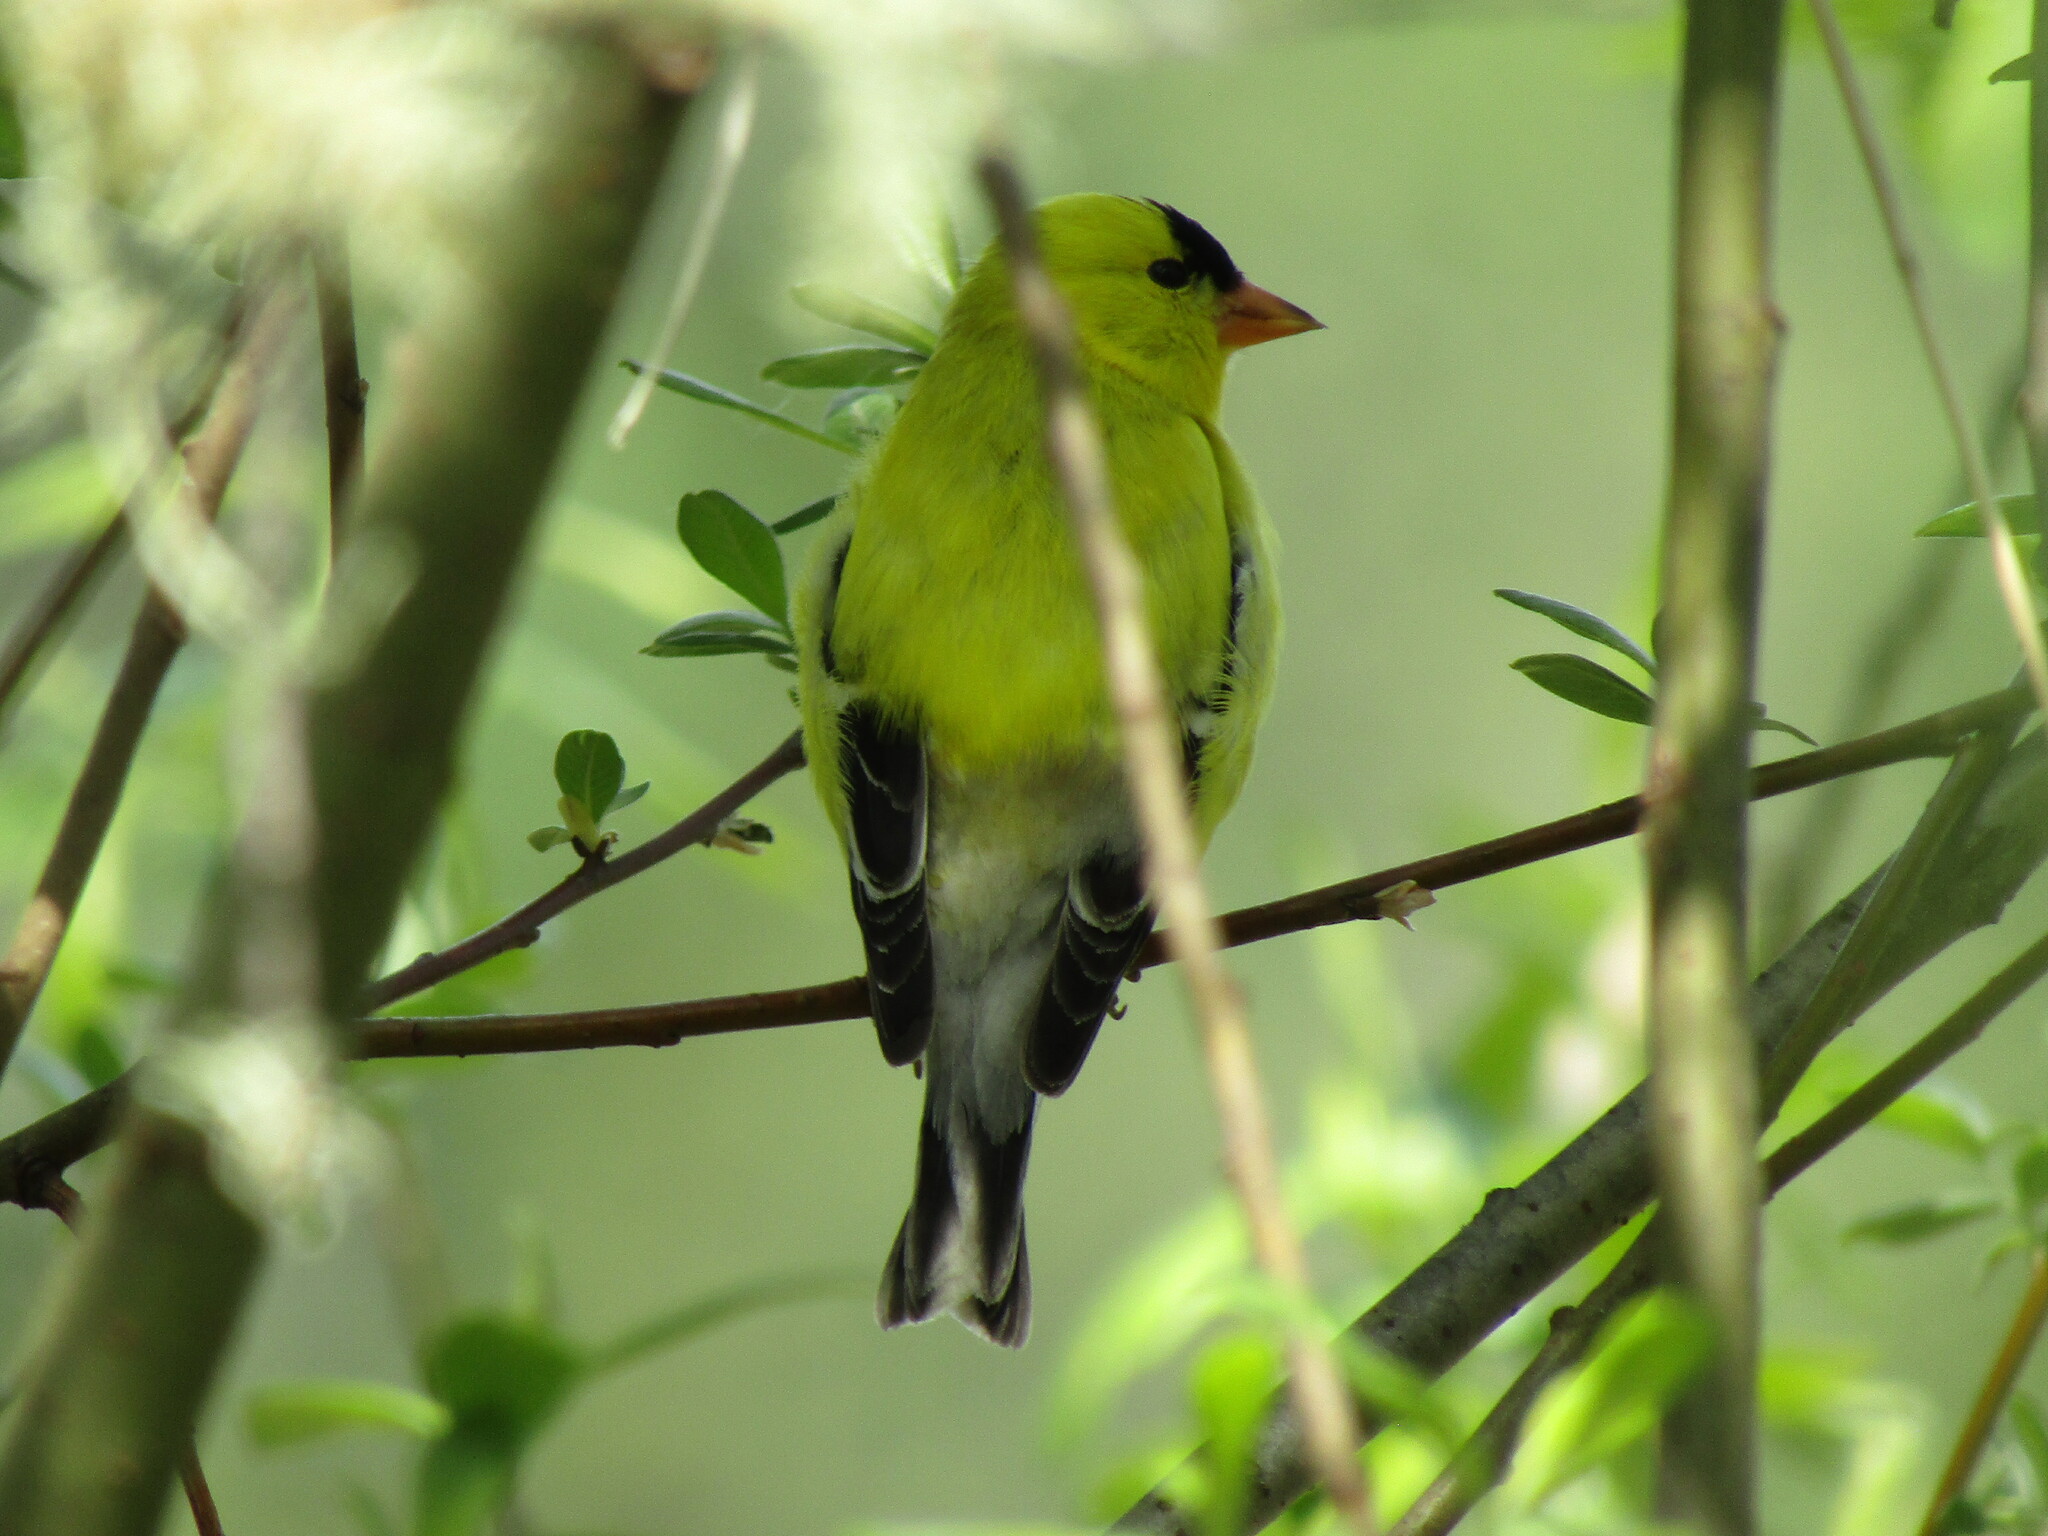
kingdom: Animalia
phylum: Chordata
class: Aves
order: Passeriformes
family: Fringillidae
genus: Spinus
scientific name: Spinus tristis
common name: American goldfinch
